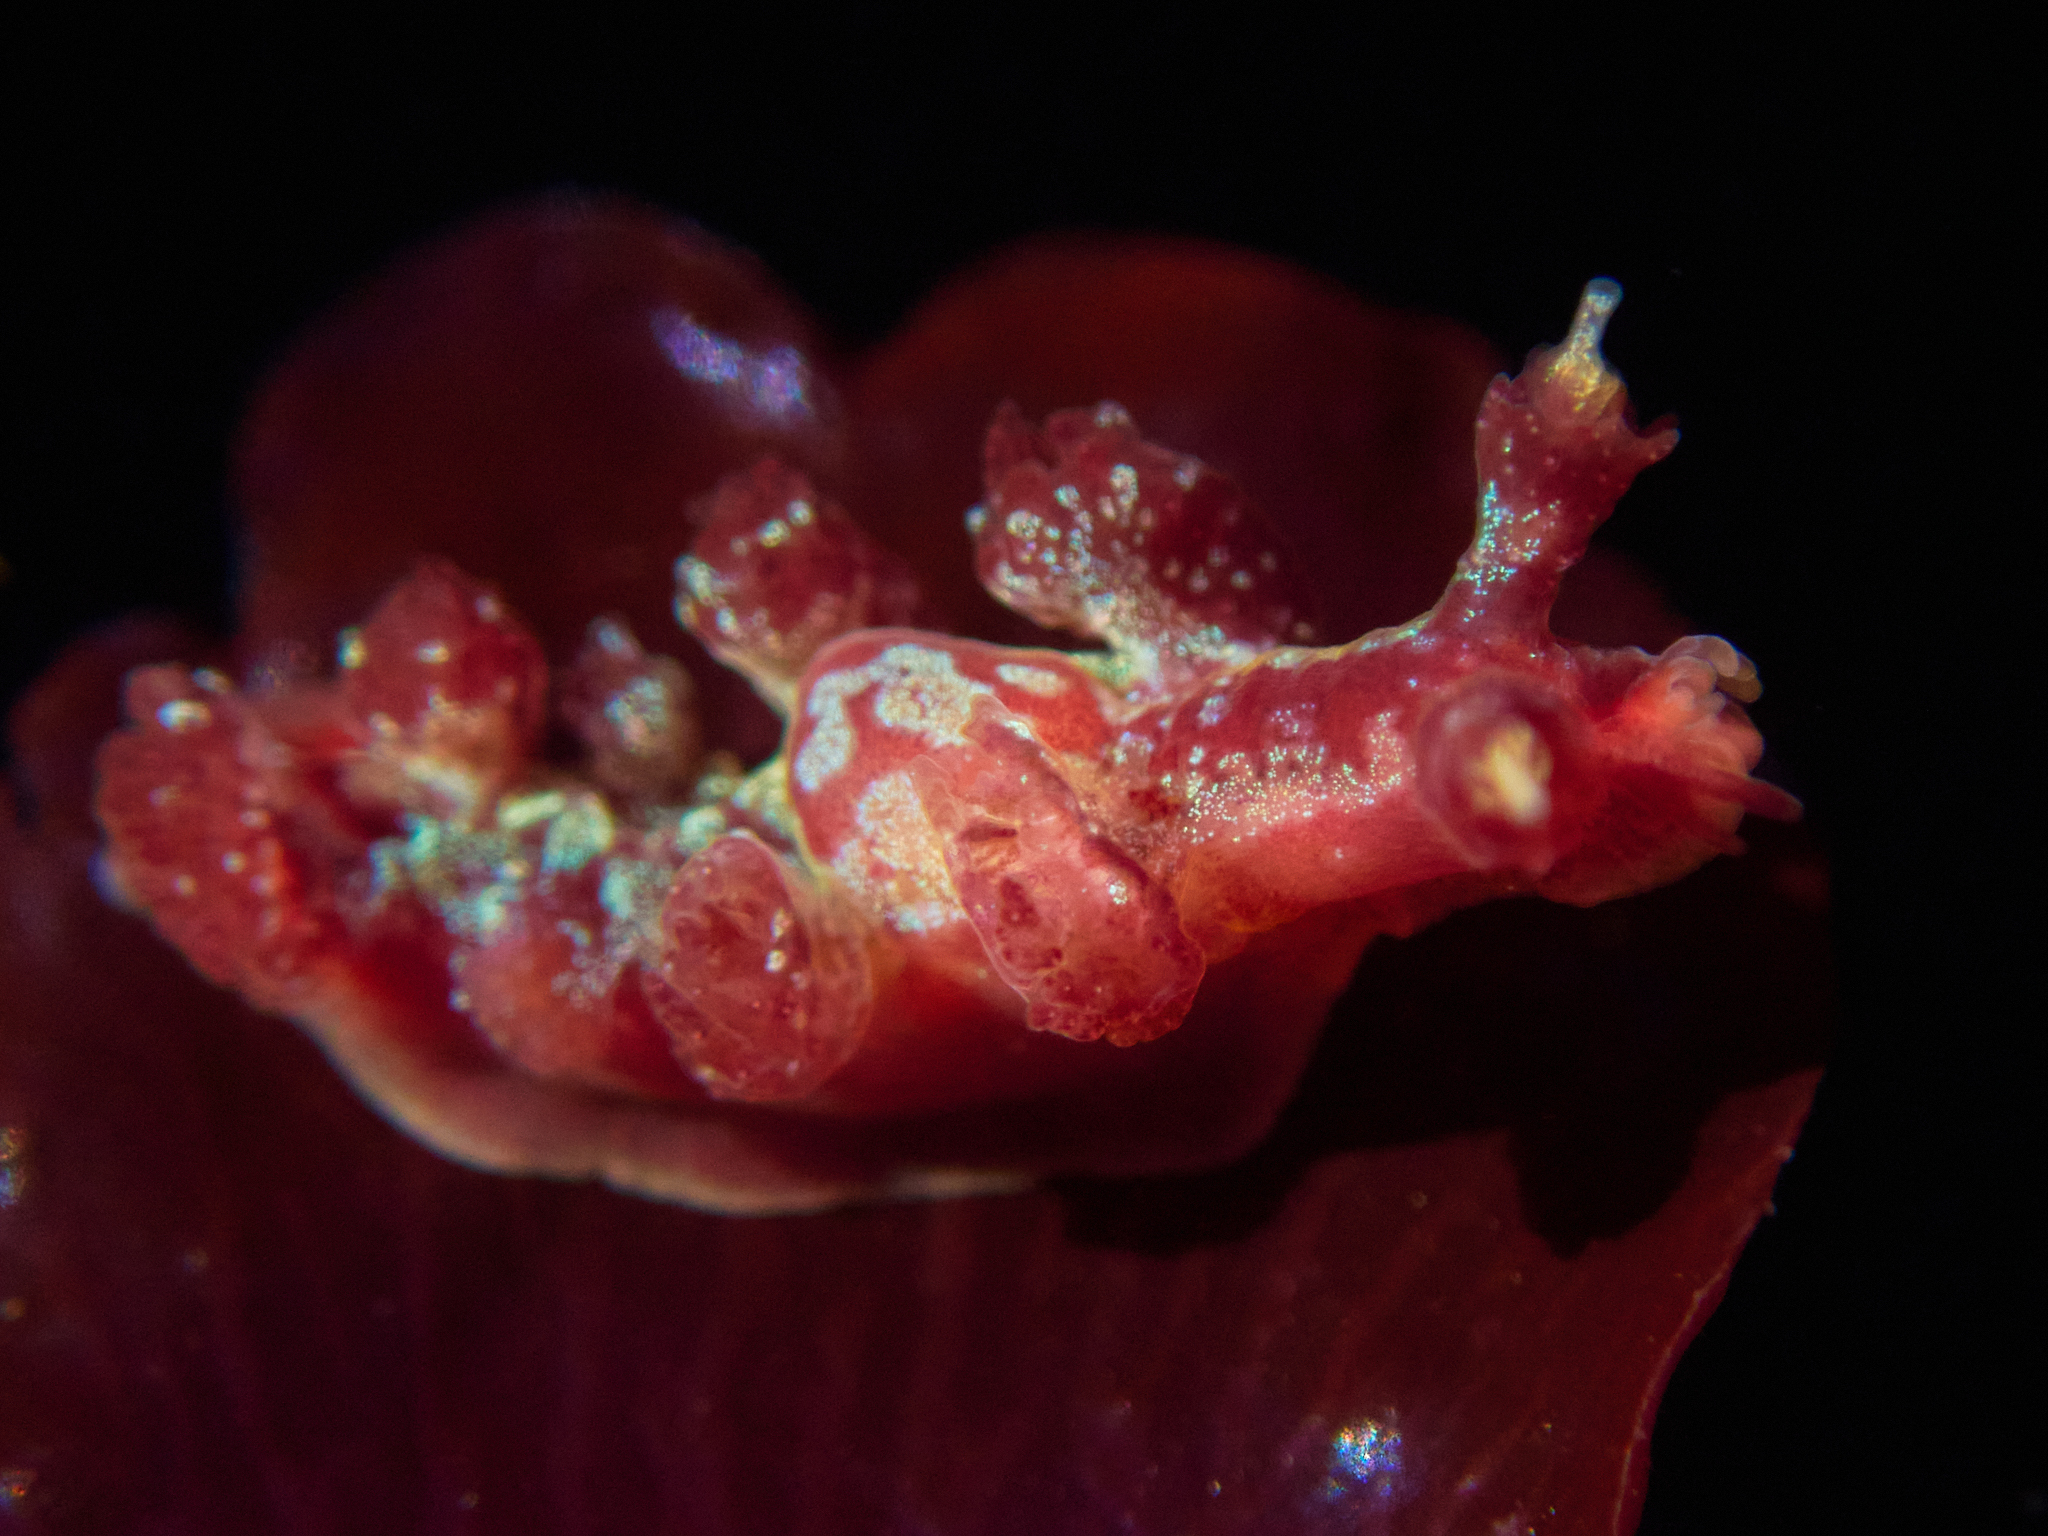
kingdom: Animalia
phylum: Mollusca
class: Gastropoda
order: Nudibranchia
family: Hancockiidae
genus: Hancockia
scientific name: Hancockia californica
